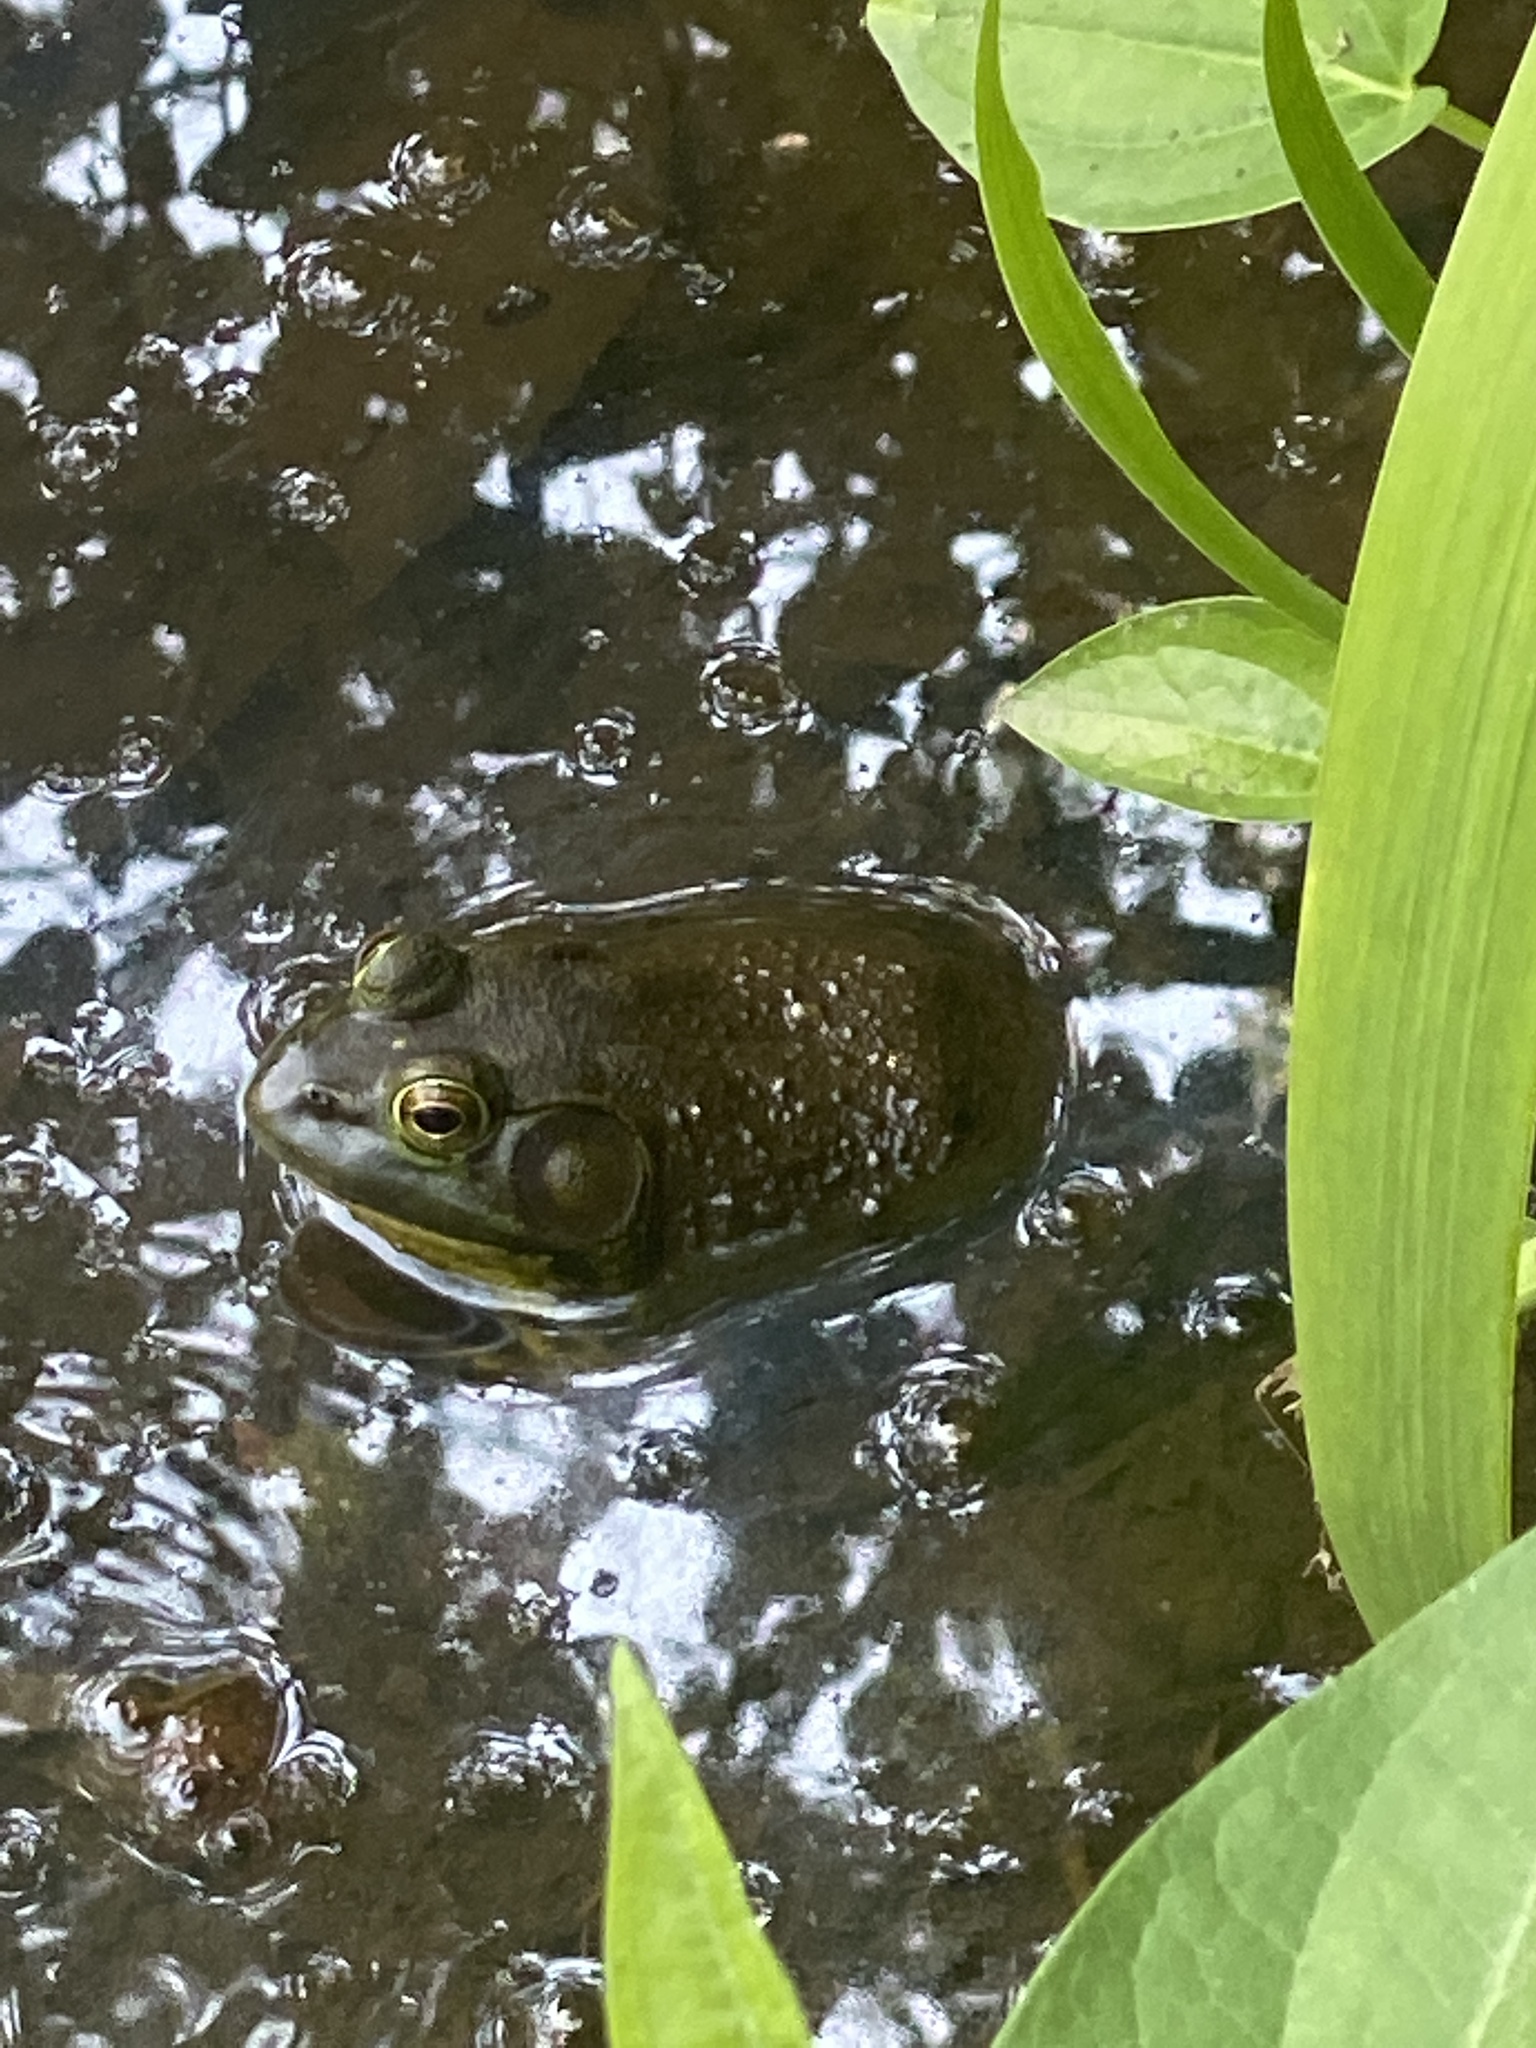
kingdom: Animalia
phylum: Chordata
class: Amphibia
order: Anura
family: Ranidae
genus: Lithobates
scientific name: Lithobates catesbeianus
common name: American bullfrog
